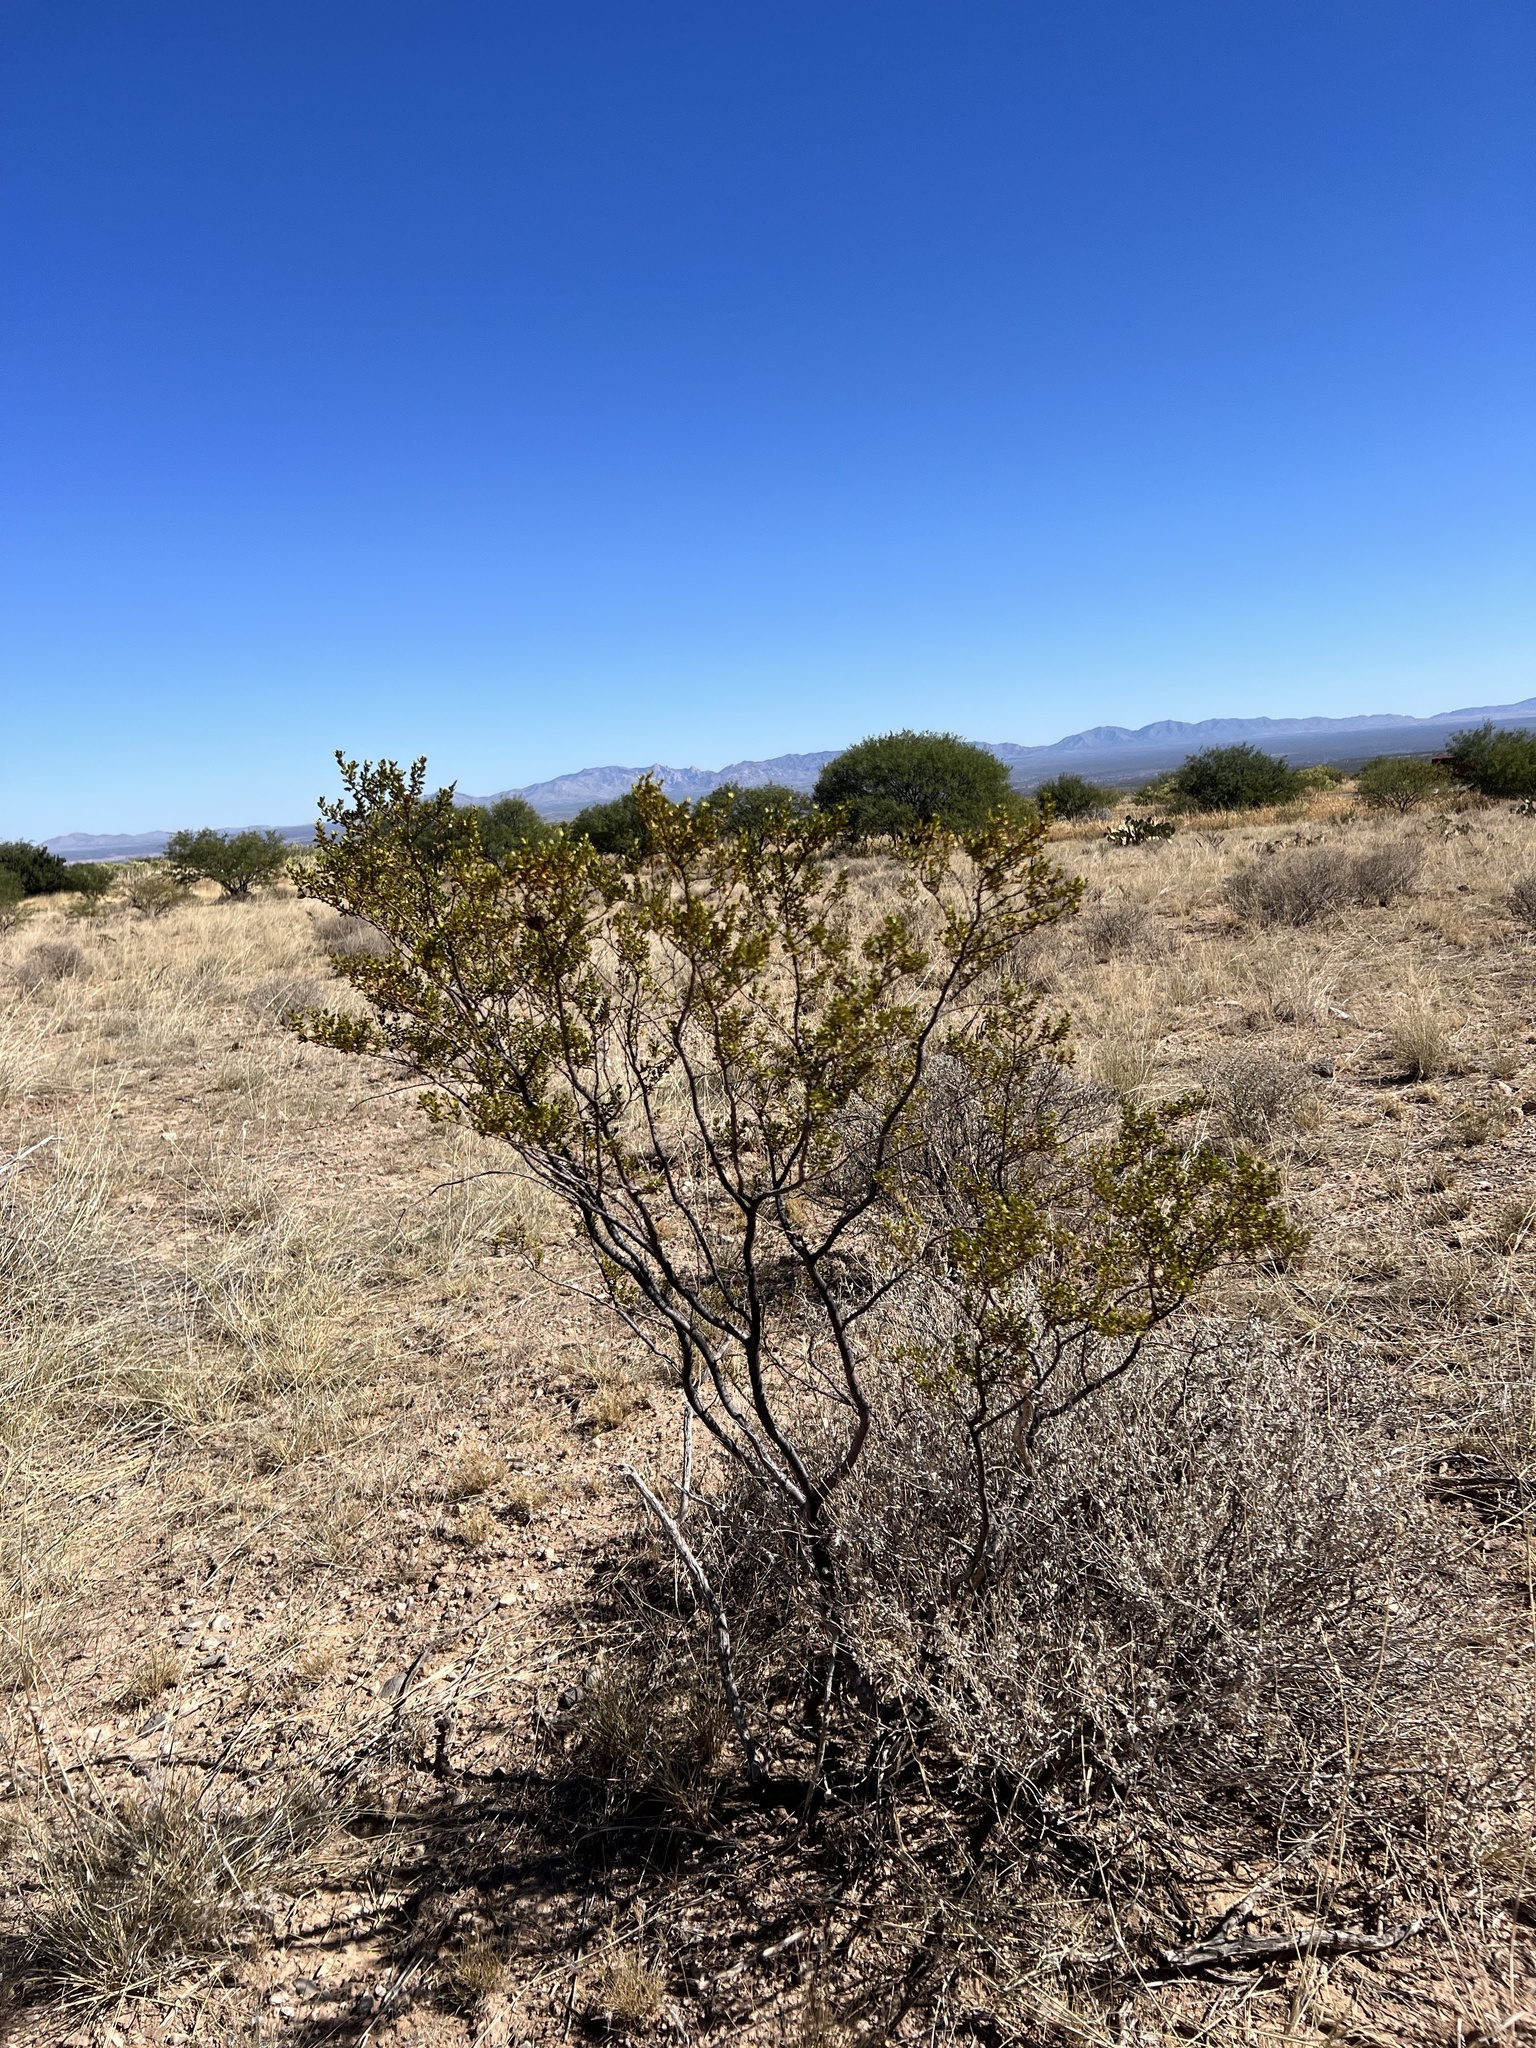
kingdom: Plantae
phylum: Tracheophyta
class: Magnoliopsida
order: Zygophyllales
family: Zygophyllaceae
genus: Larrea
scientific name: Larrea tridentata
